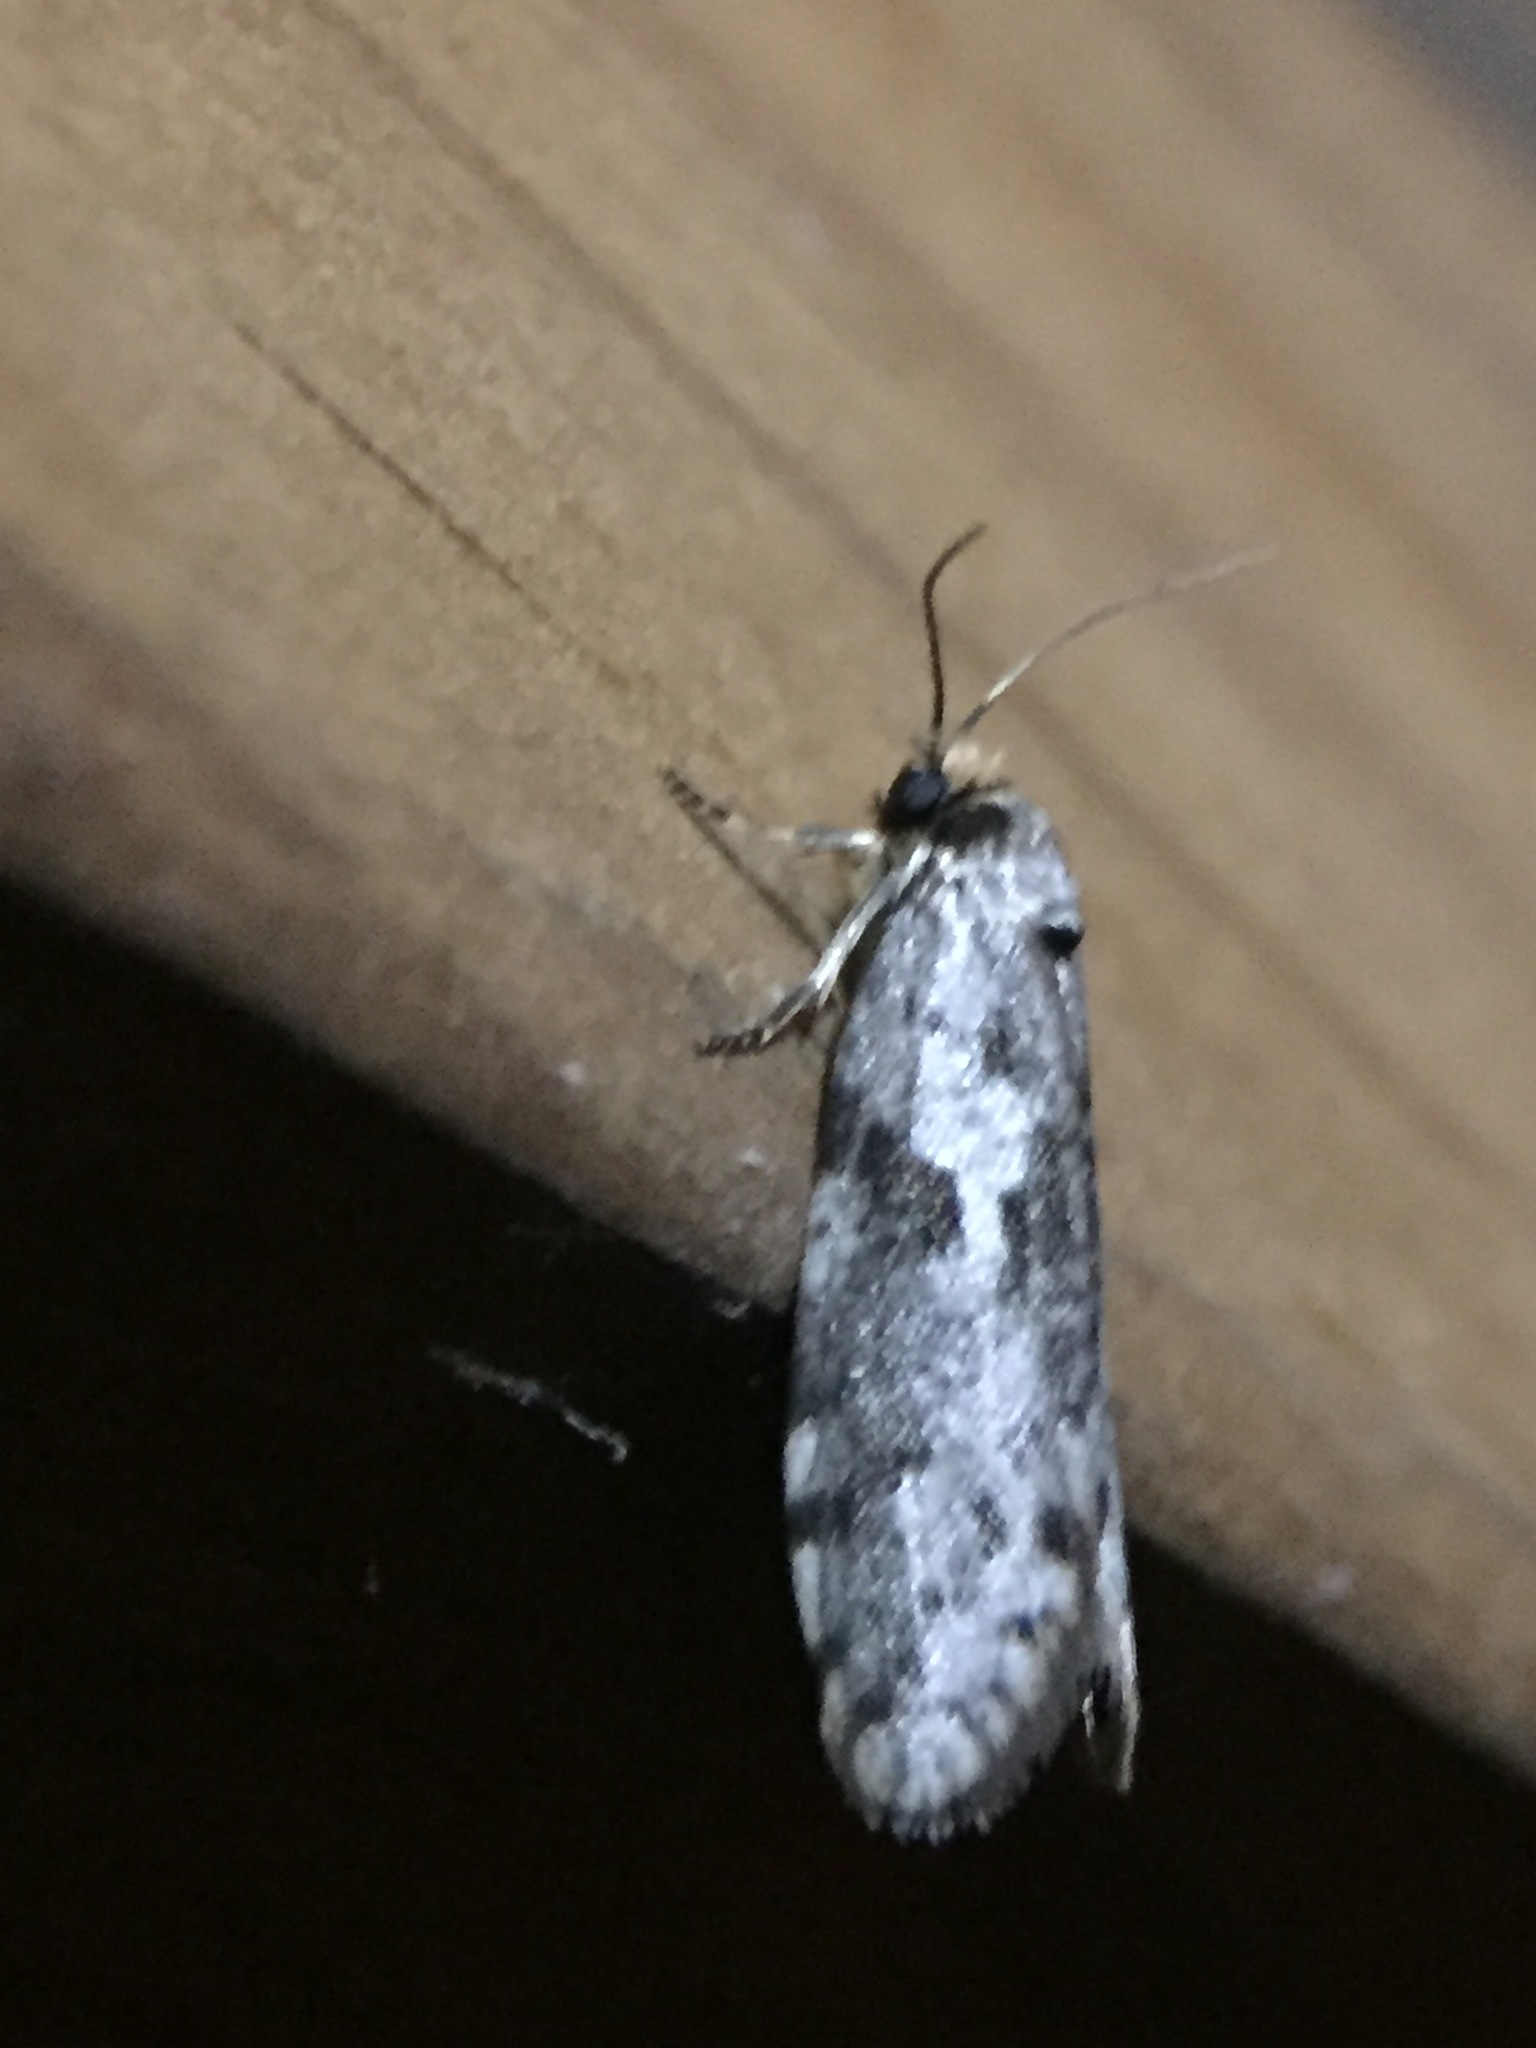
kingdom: Animalia
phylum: Arthropoda
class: Insecta
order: Lepidoptera
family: Psychidae
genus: Lepidoscia
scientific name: Lepidoscia protorna
